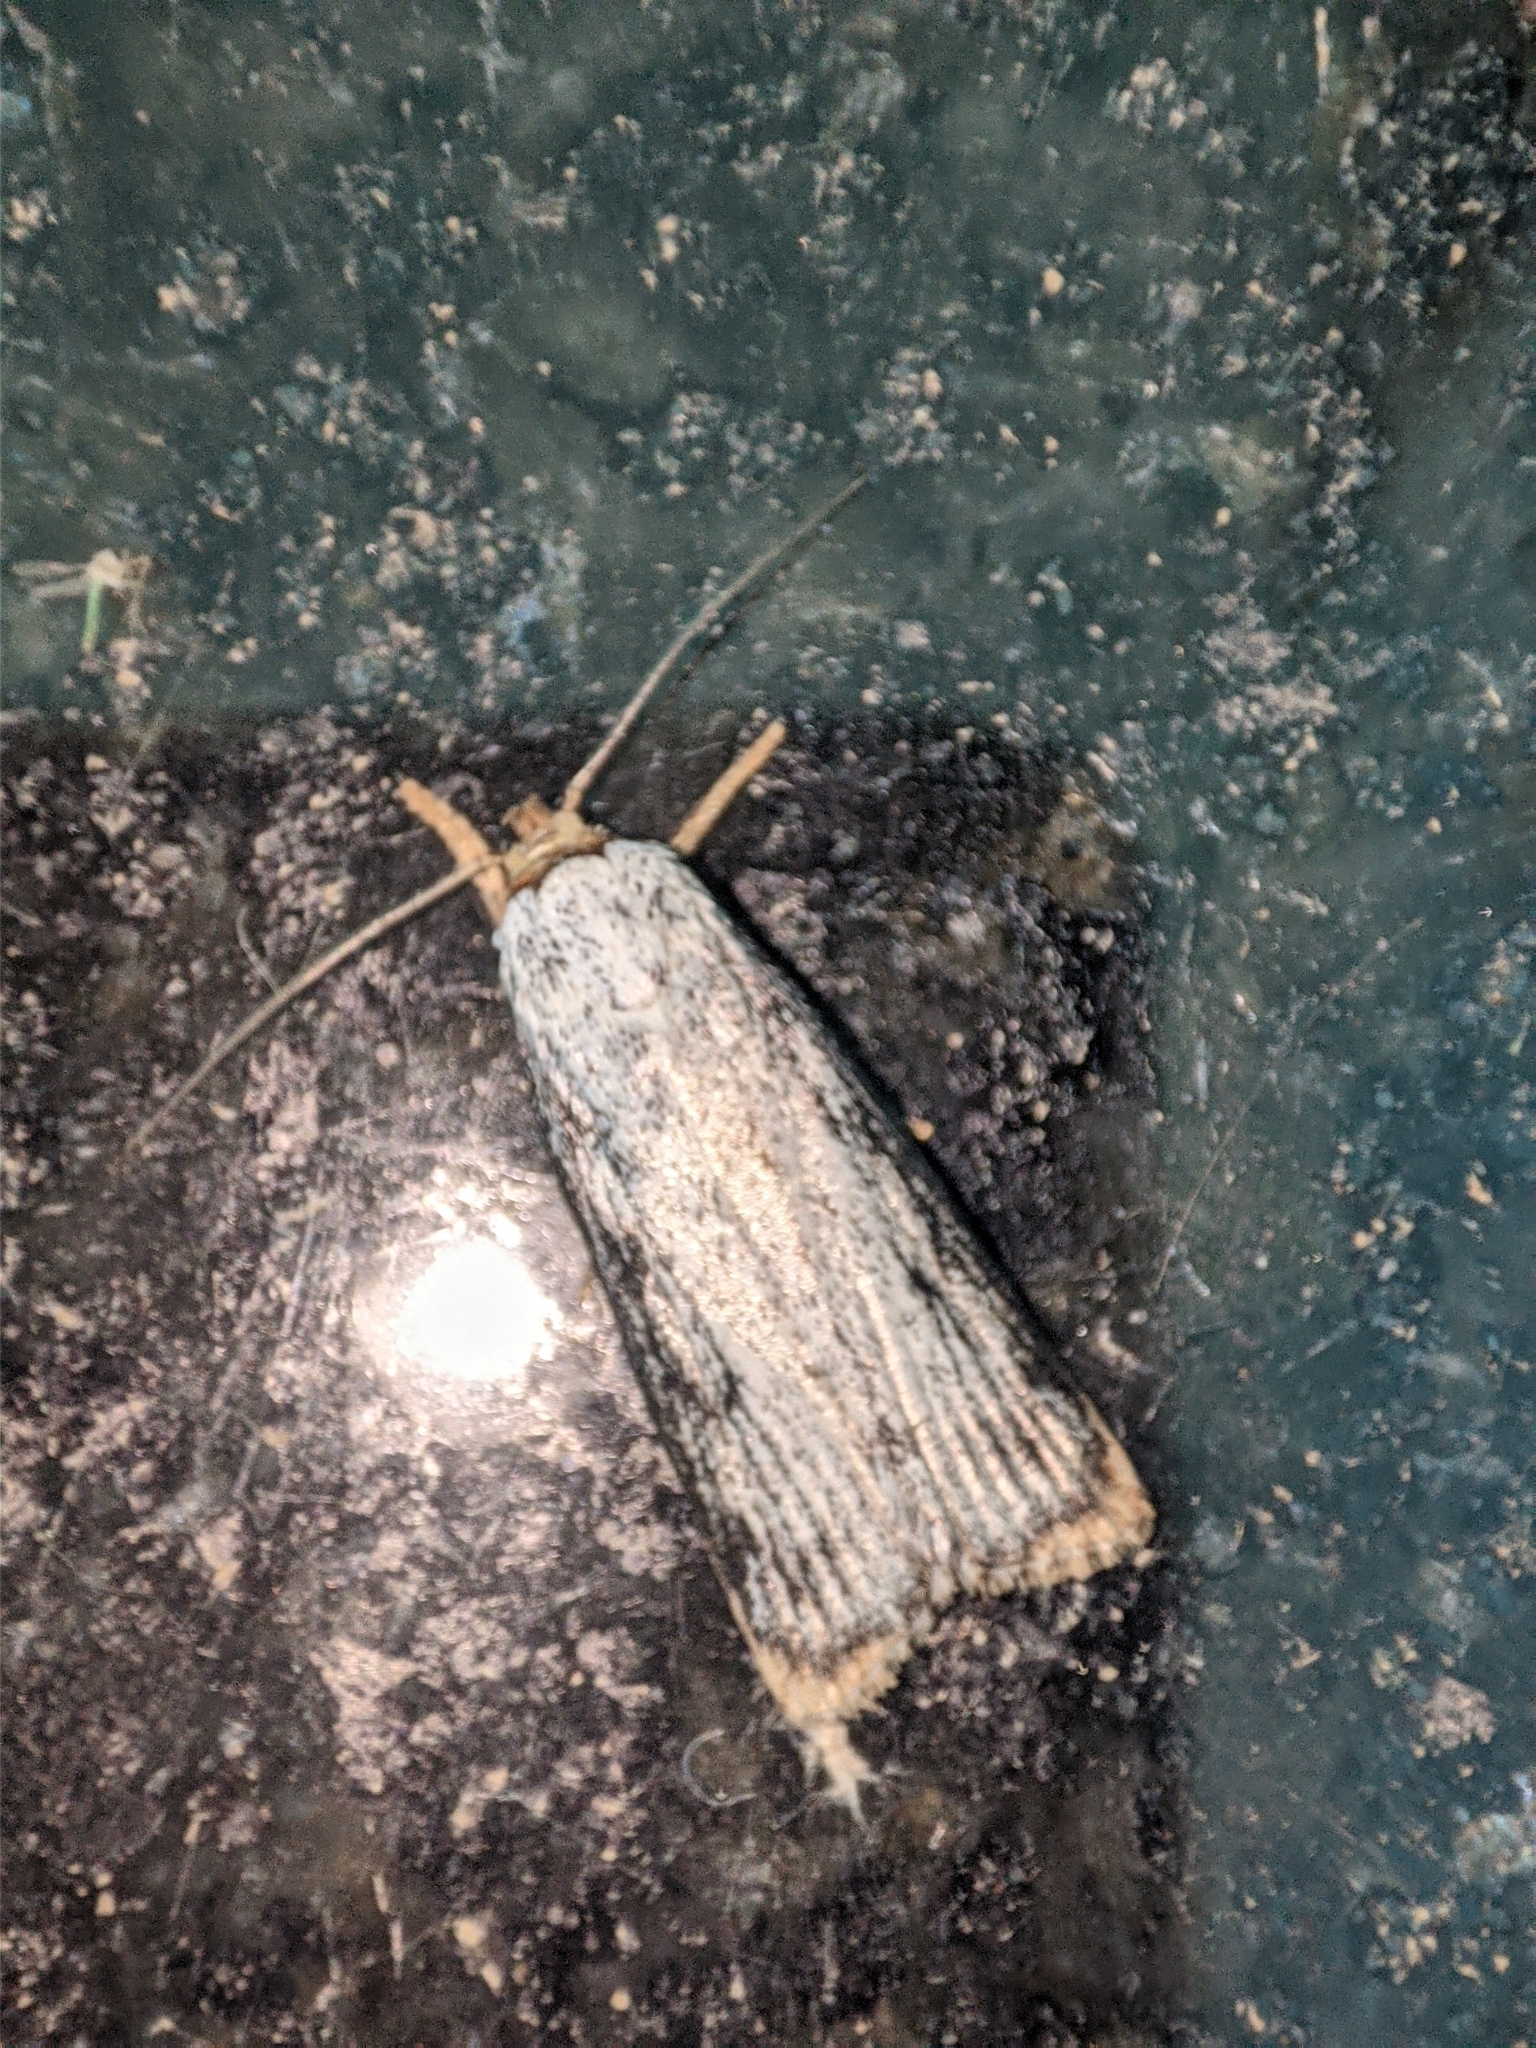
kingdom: Animalia
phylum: Arthropoda
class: Insecta
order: Lepidoptera
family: Xyloryctidae
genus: Thymiatris
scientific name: Thymiatris arista
